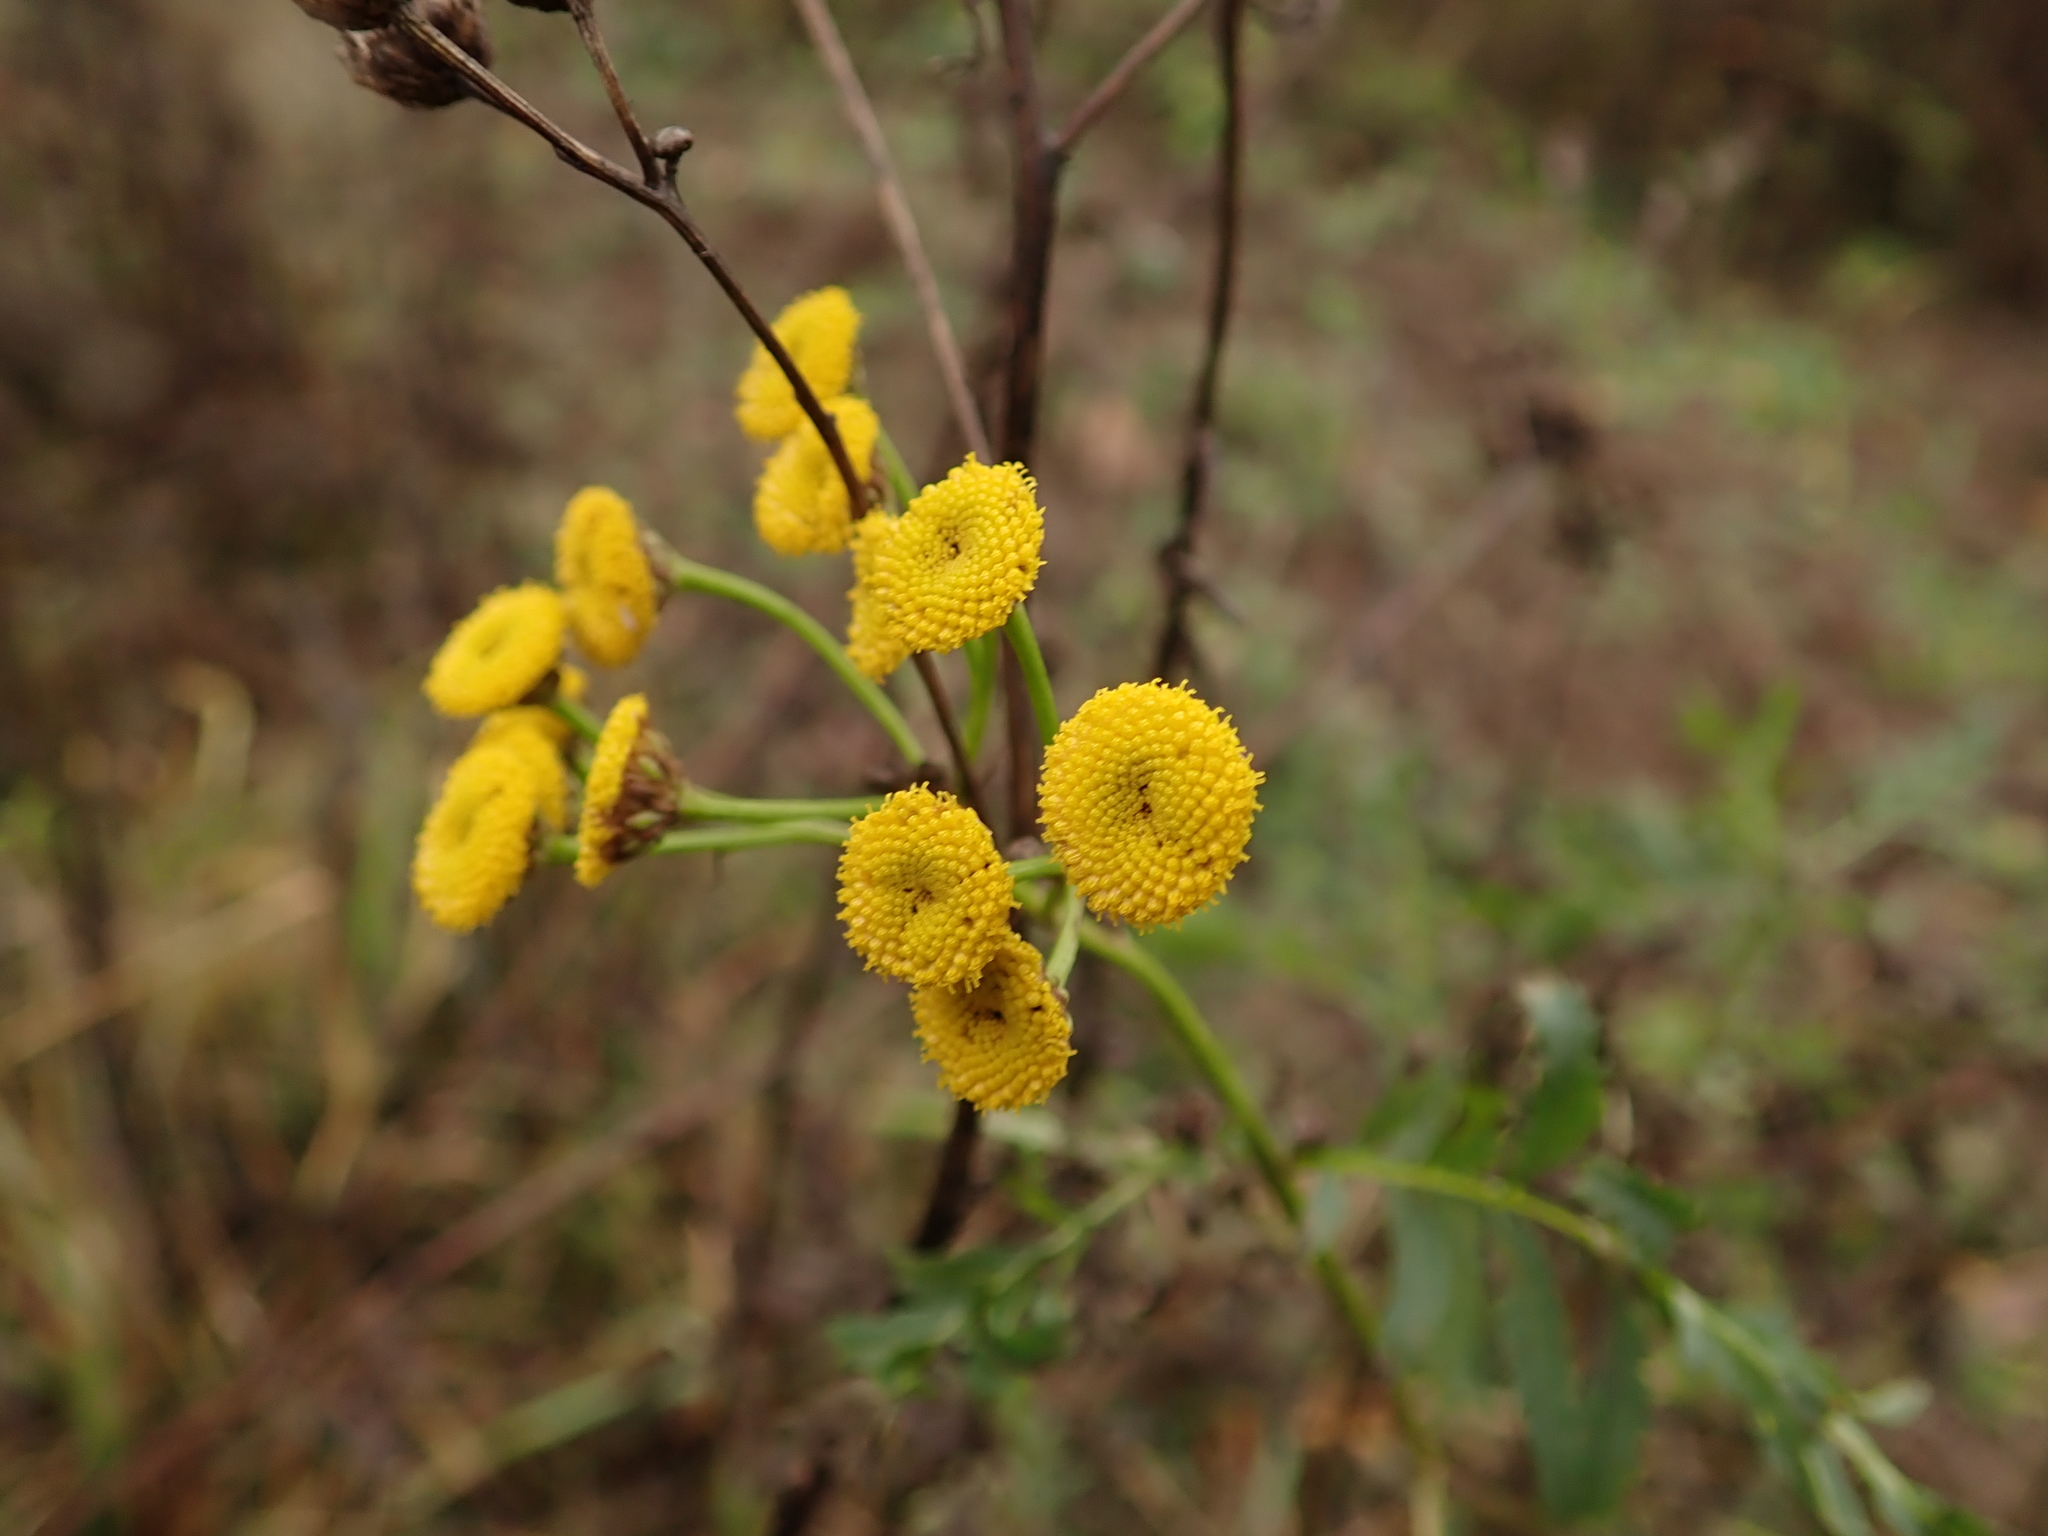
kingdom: Plantae
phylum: Tracheophyta
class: Magnoliopsida
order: Asterales
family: Asteraceae
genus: Tanacetum
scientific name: Tanacetum vulgare
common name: Common tansy
